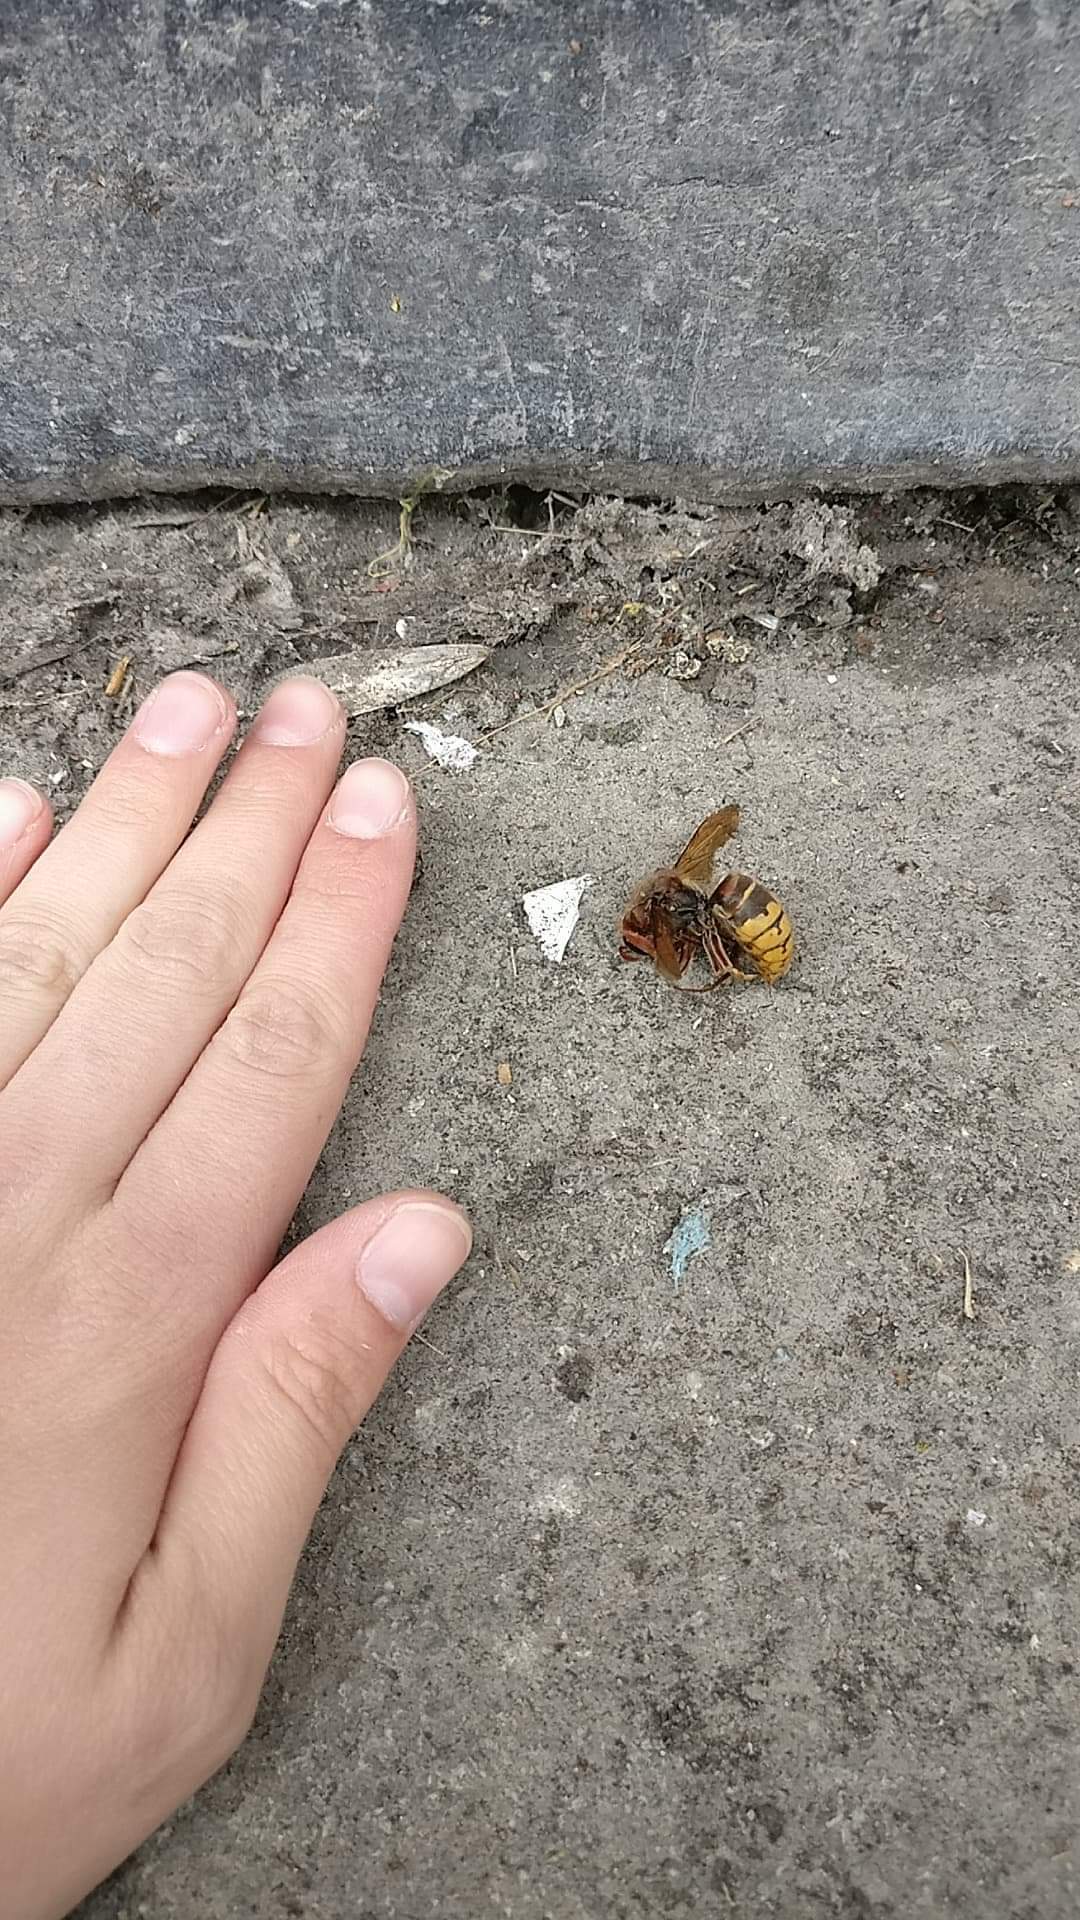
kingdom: Animalia
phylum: Arthropoda
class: Insecta
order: Hymenoptera
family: Vespidae
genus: Vespa
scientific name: Vespa crabro
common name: Hornet
